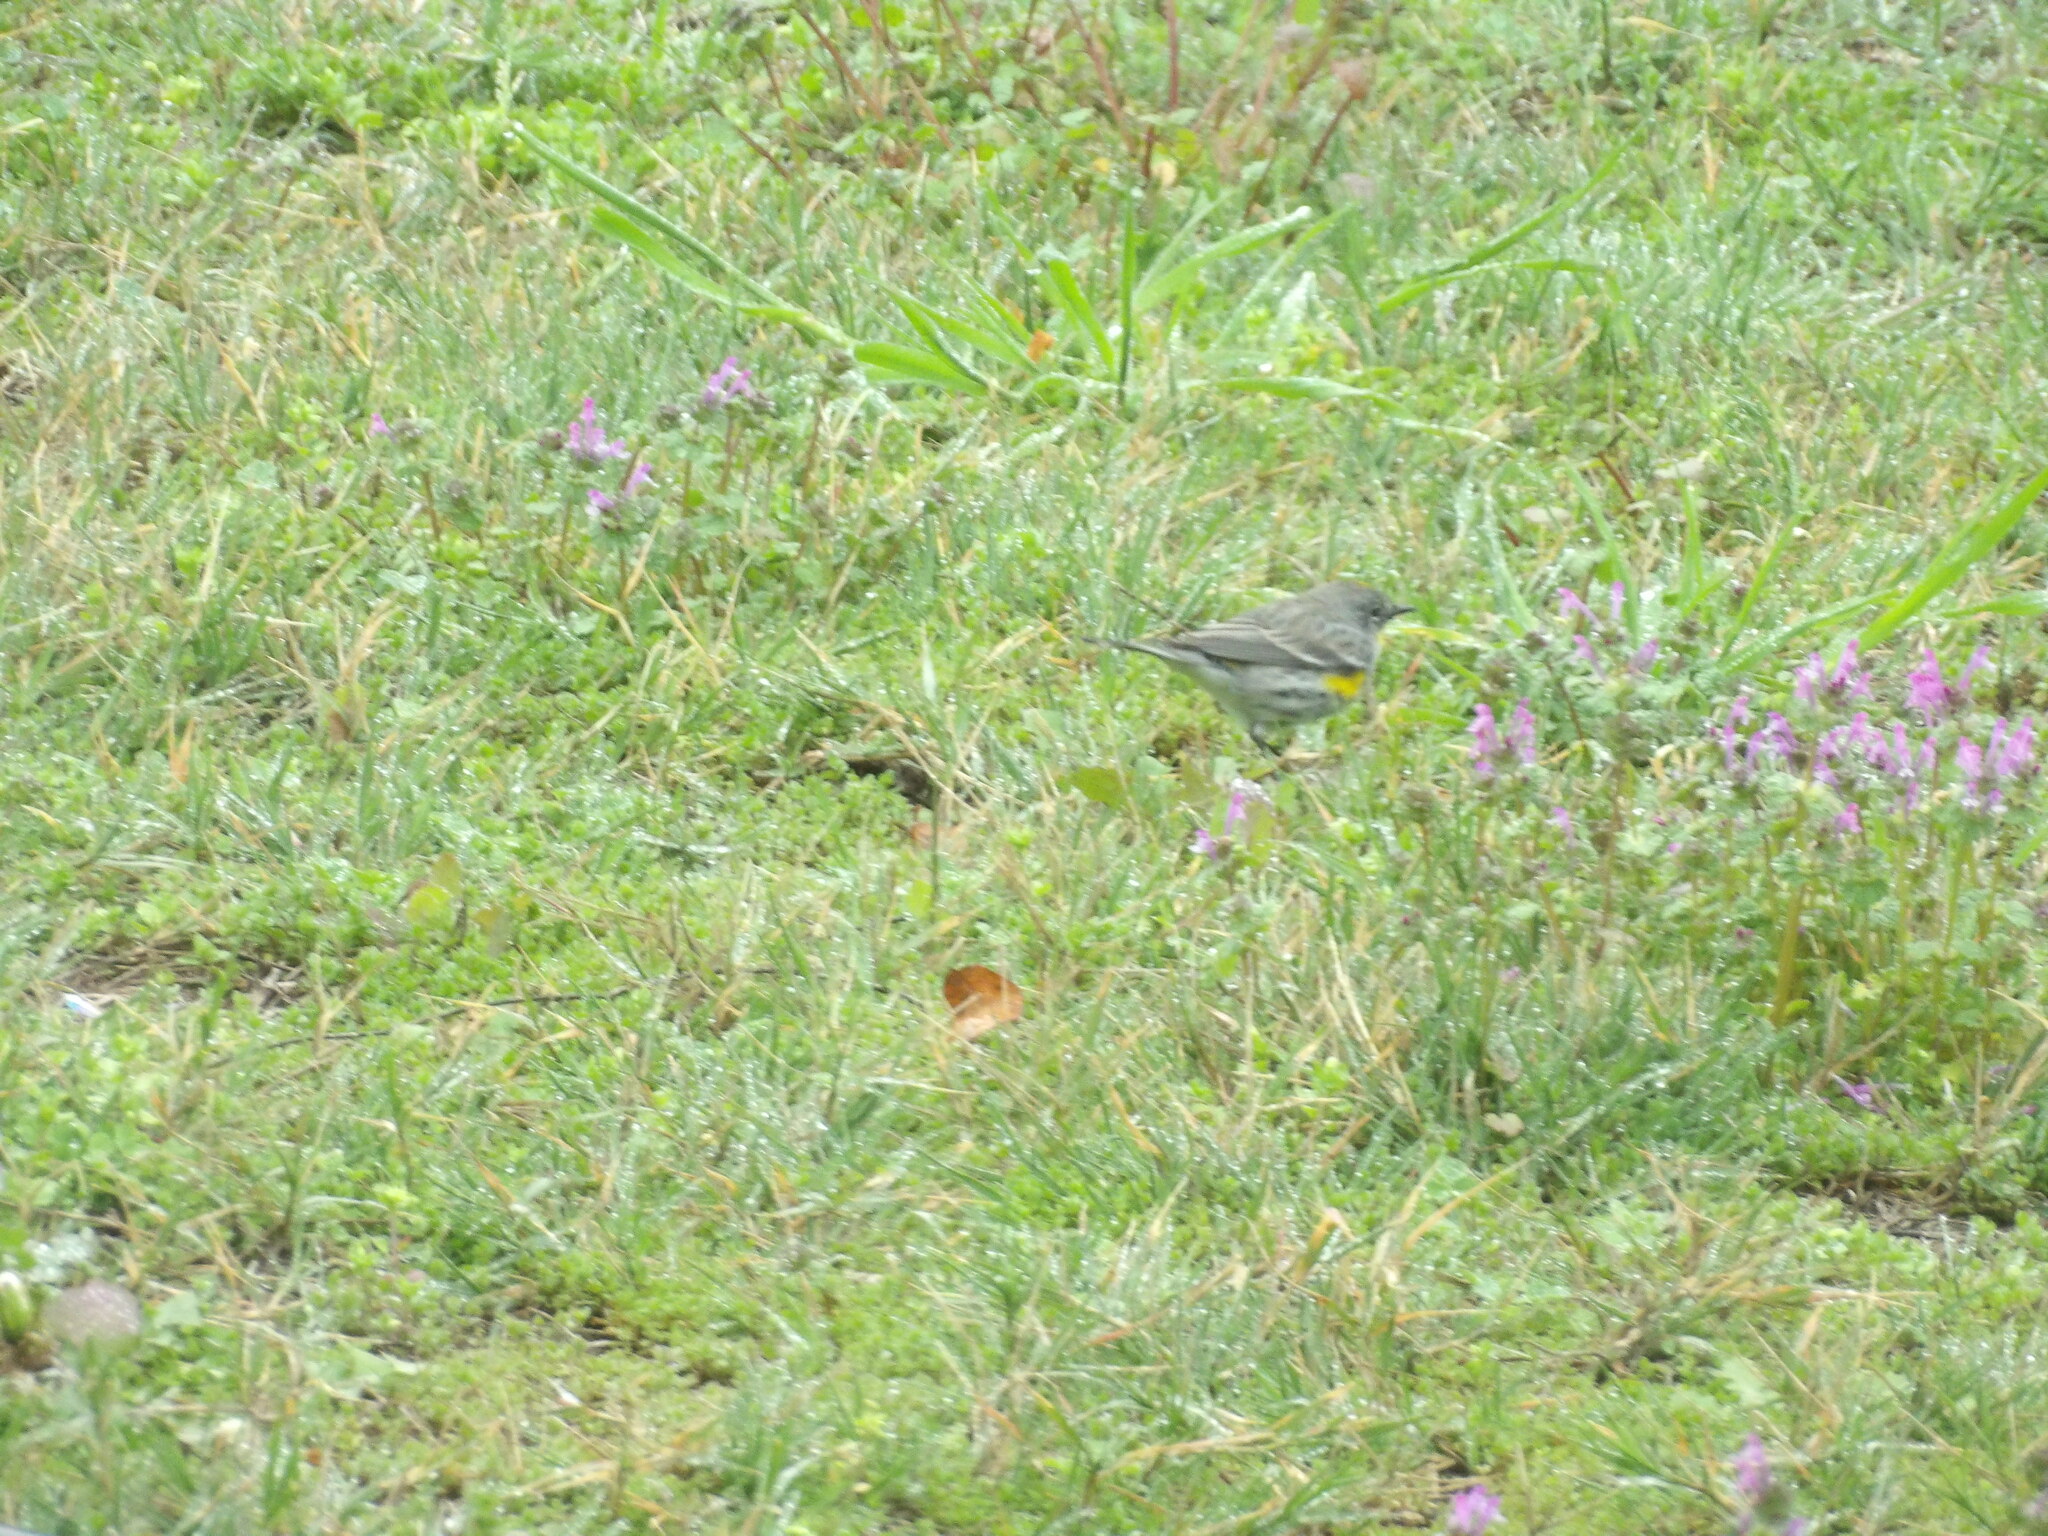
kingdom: Animalia
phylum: Chordata
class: Aves
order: Passeriformes
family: Parulidae
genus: Setophaga
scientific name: Setophaga coronata
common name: Myrtle warbler
